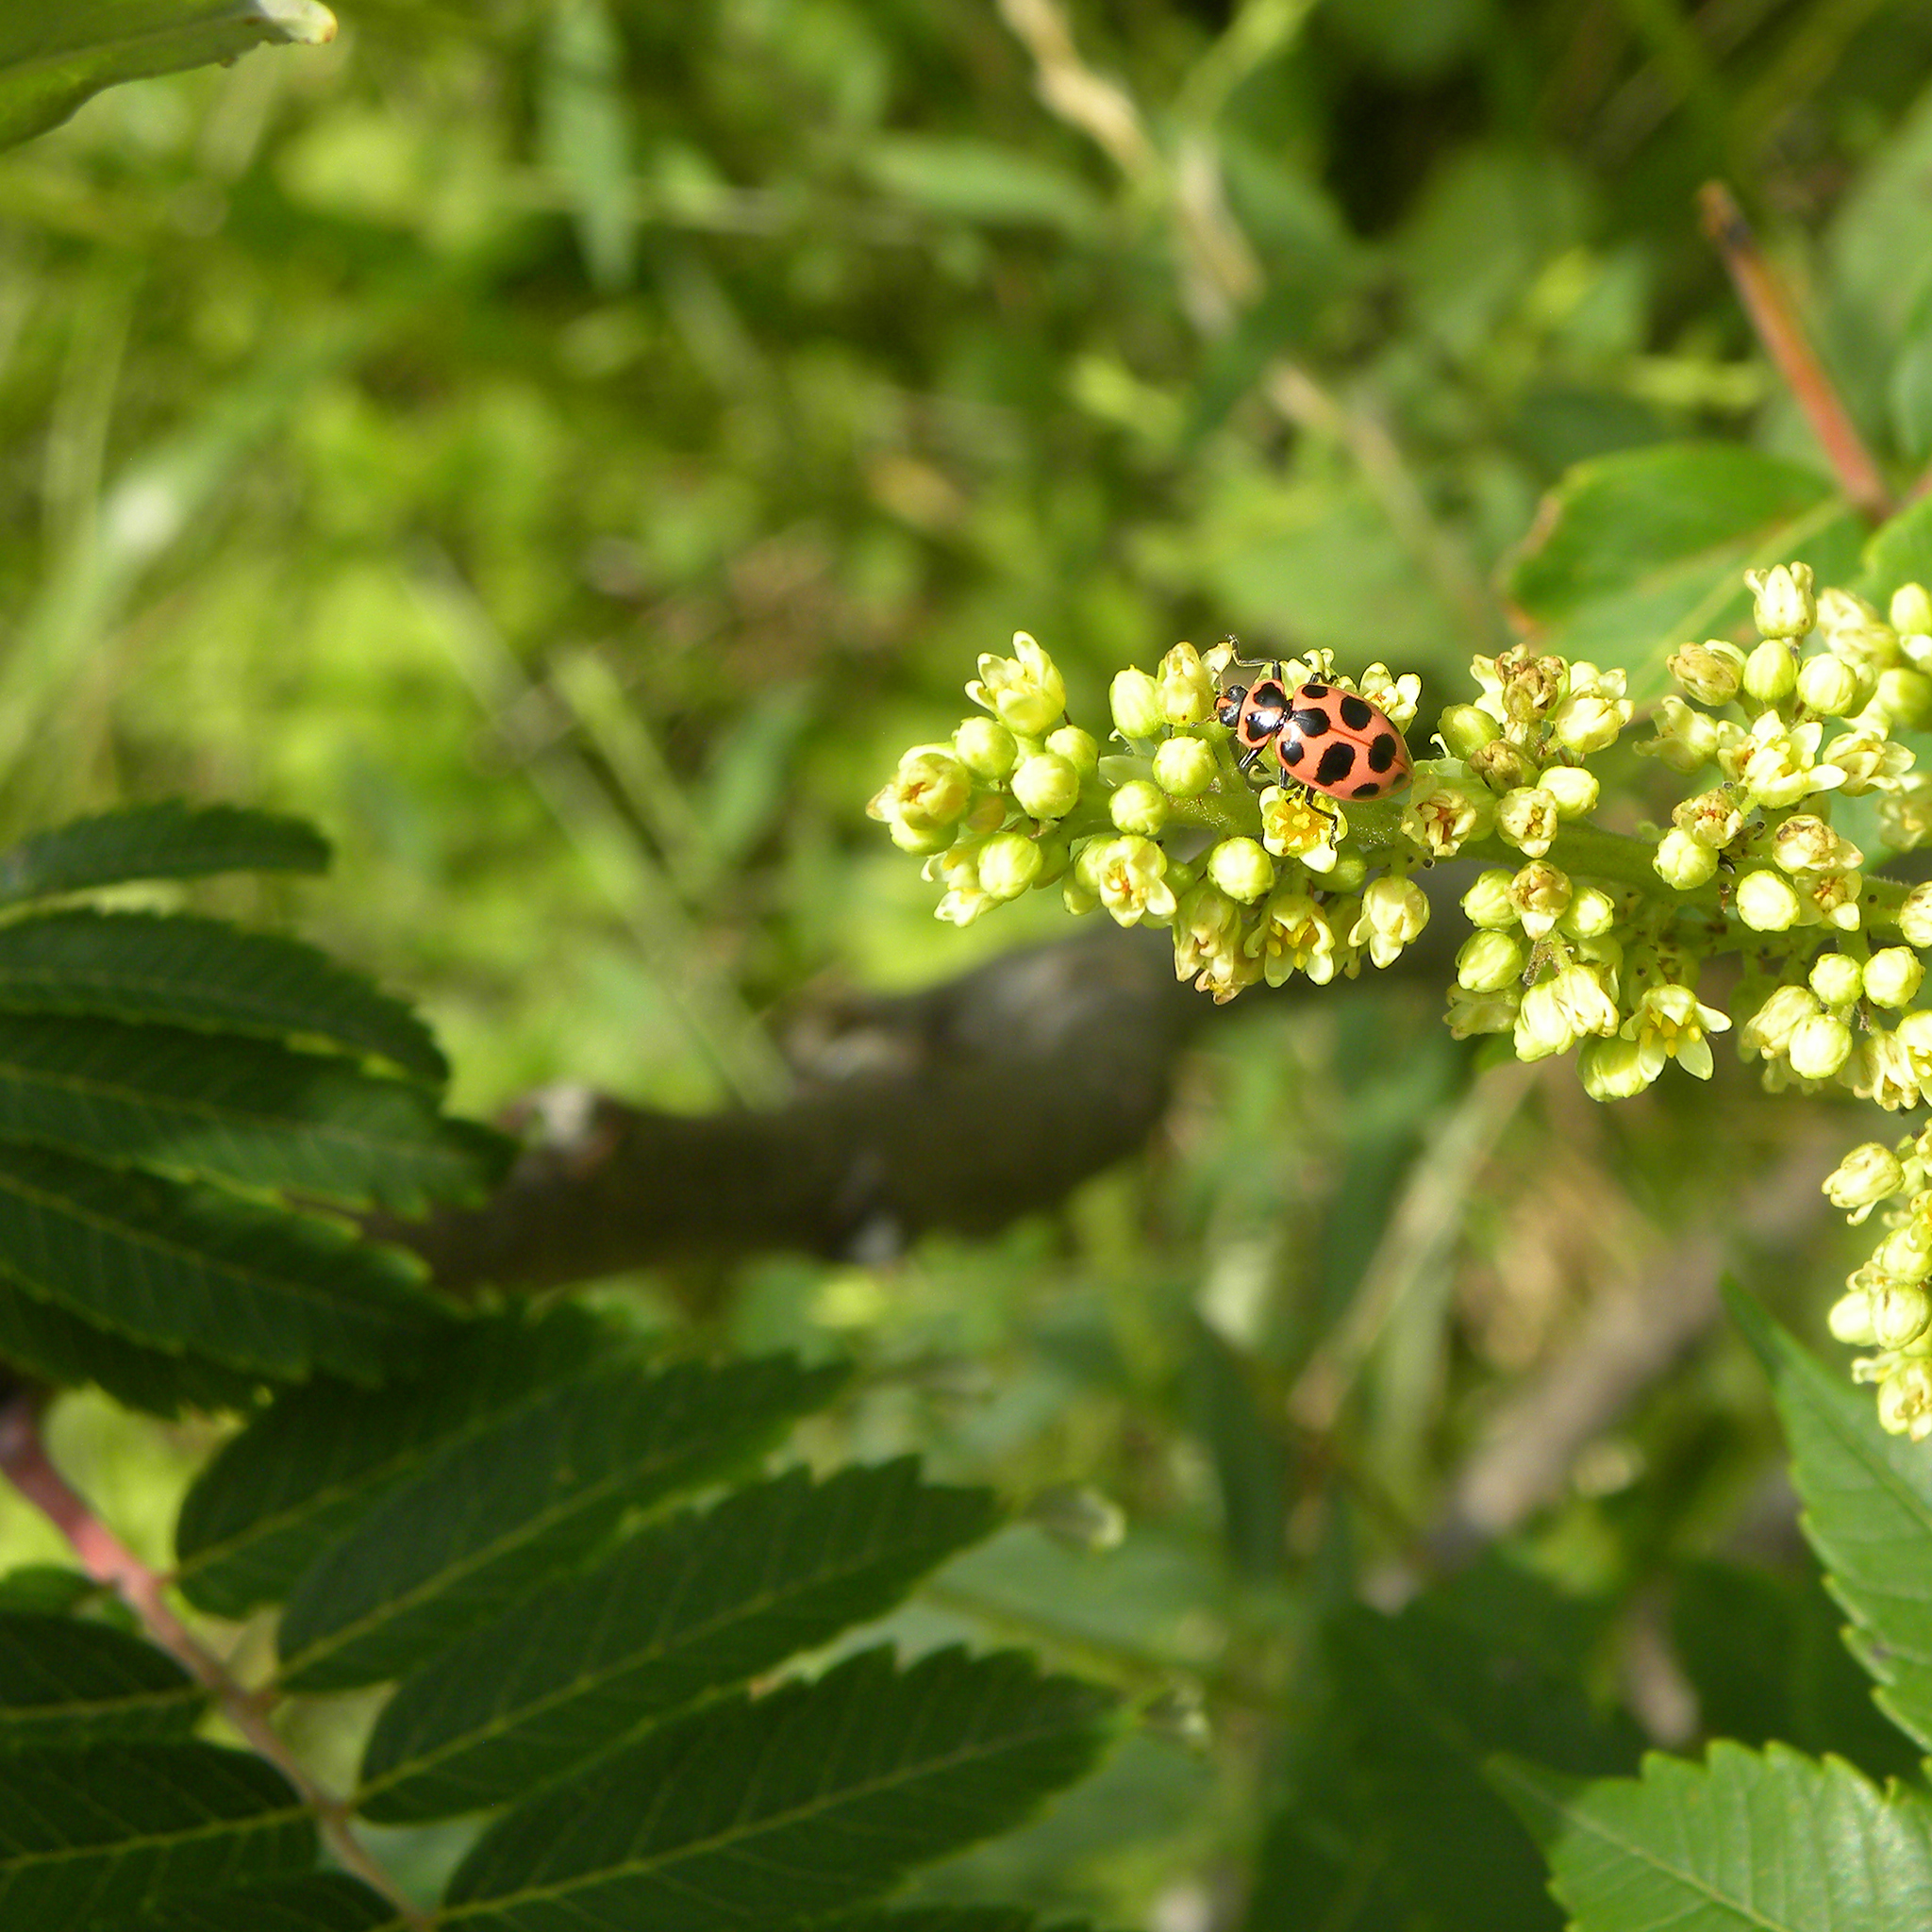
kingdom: Animalia
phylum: Arthropoda
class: Insecta
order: Coleoptera
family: Coccinellidae
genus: Coleomegilla
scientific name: Coleomegilla maculata
